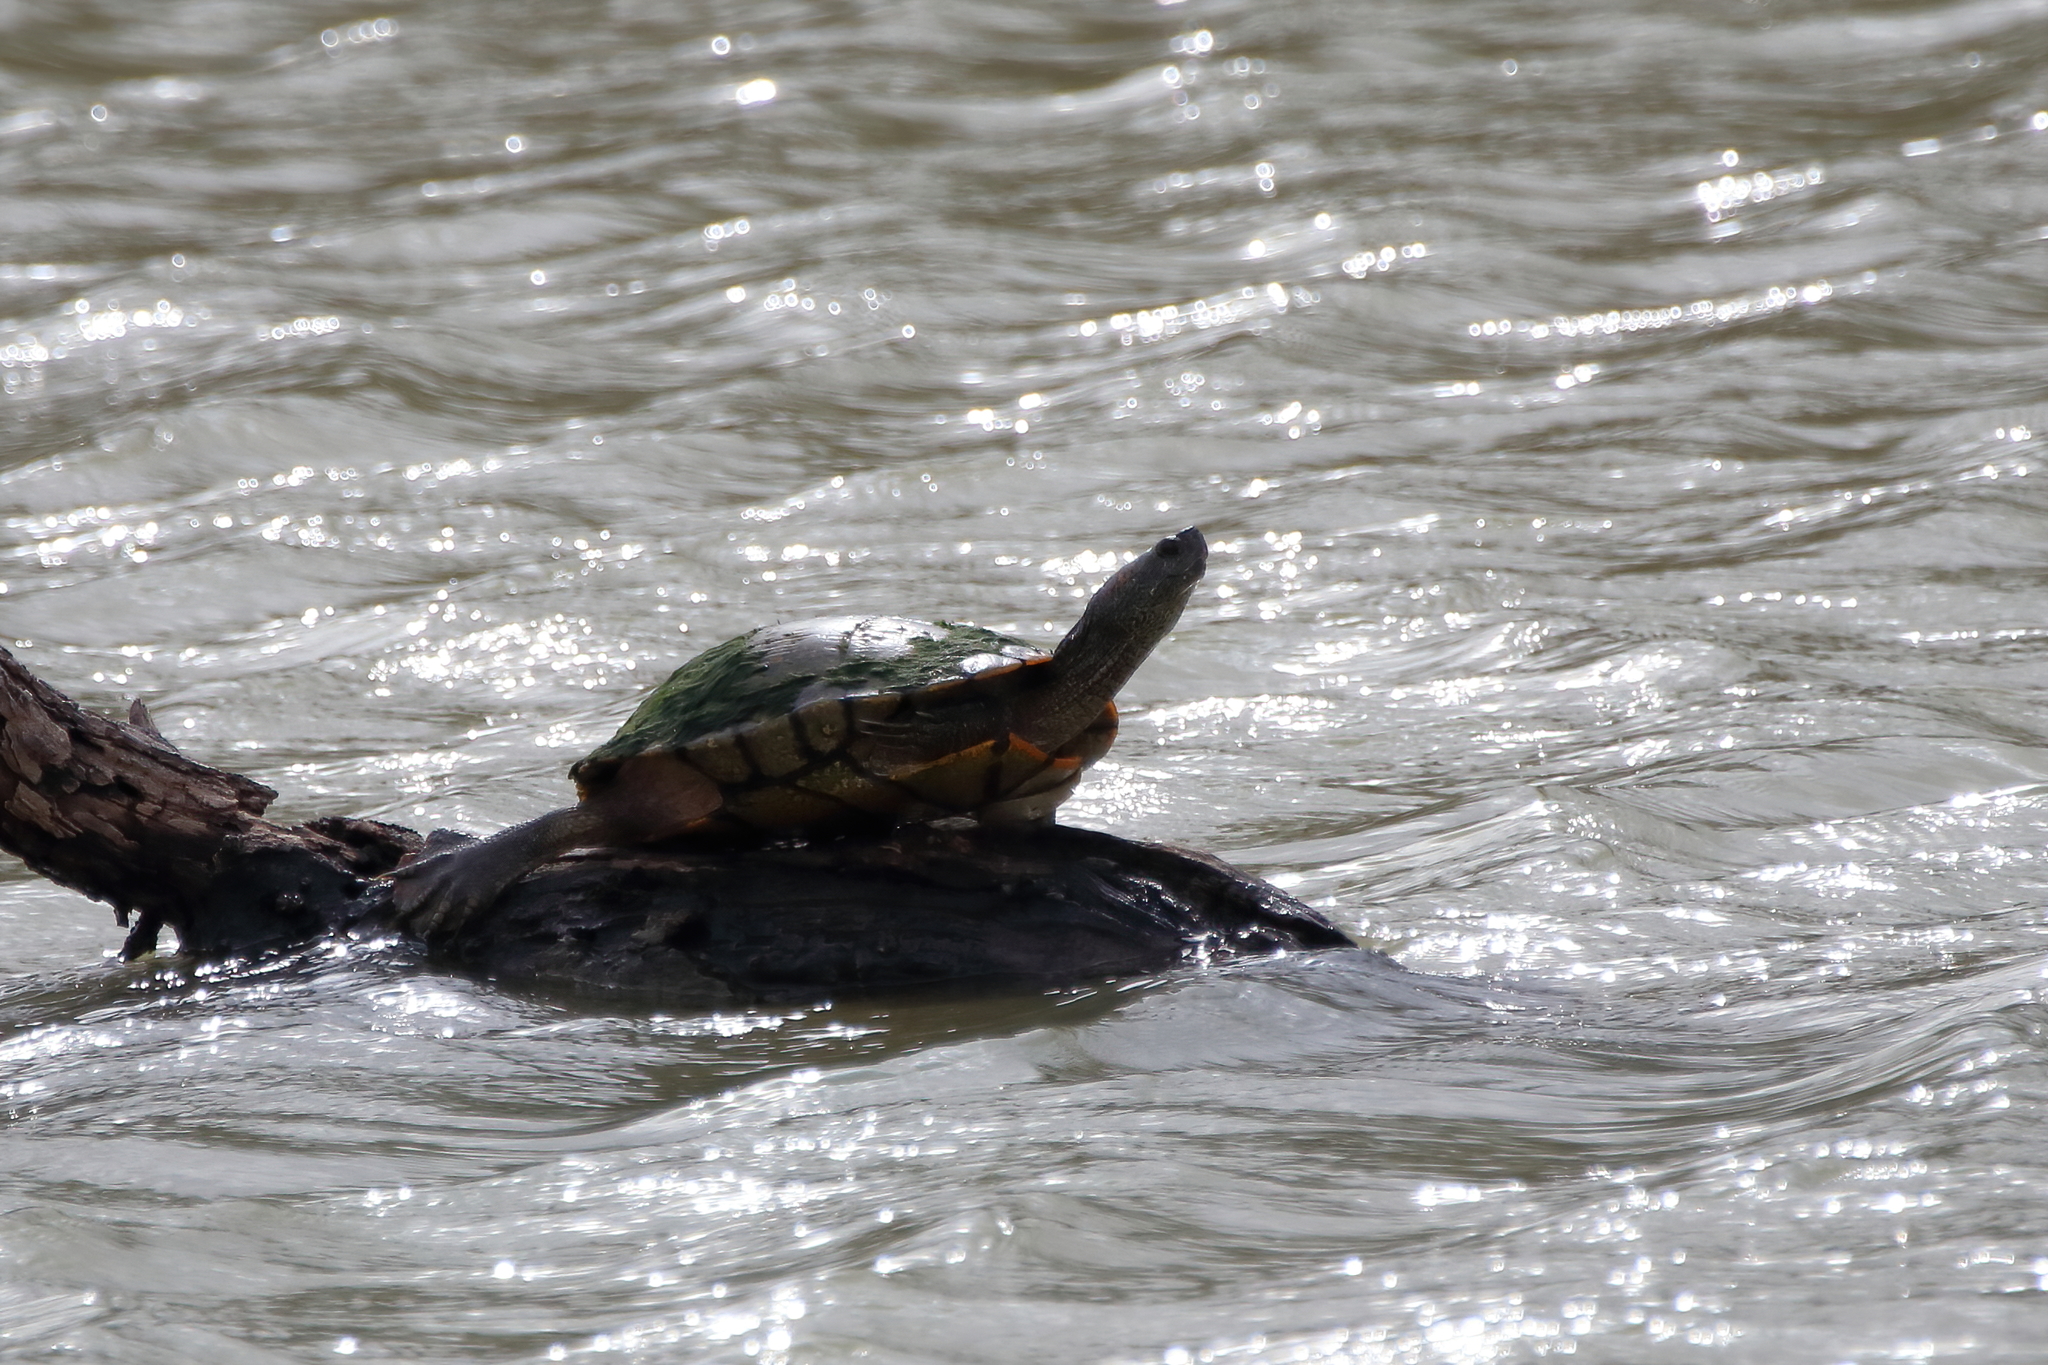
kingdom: Animalia
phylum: Chordata
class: Testudines
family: Emydidae
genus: Trachemys
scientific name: Trachemys scripta
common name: Slider
